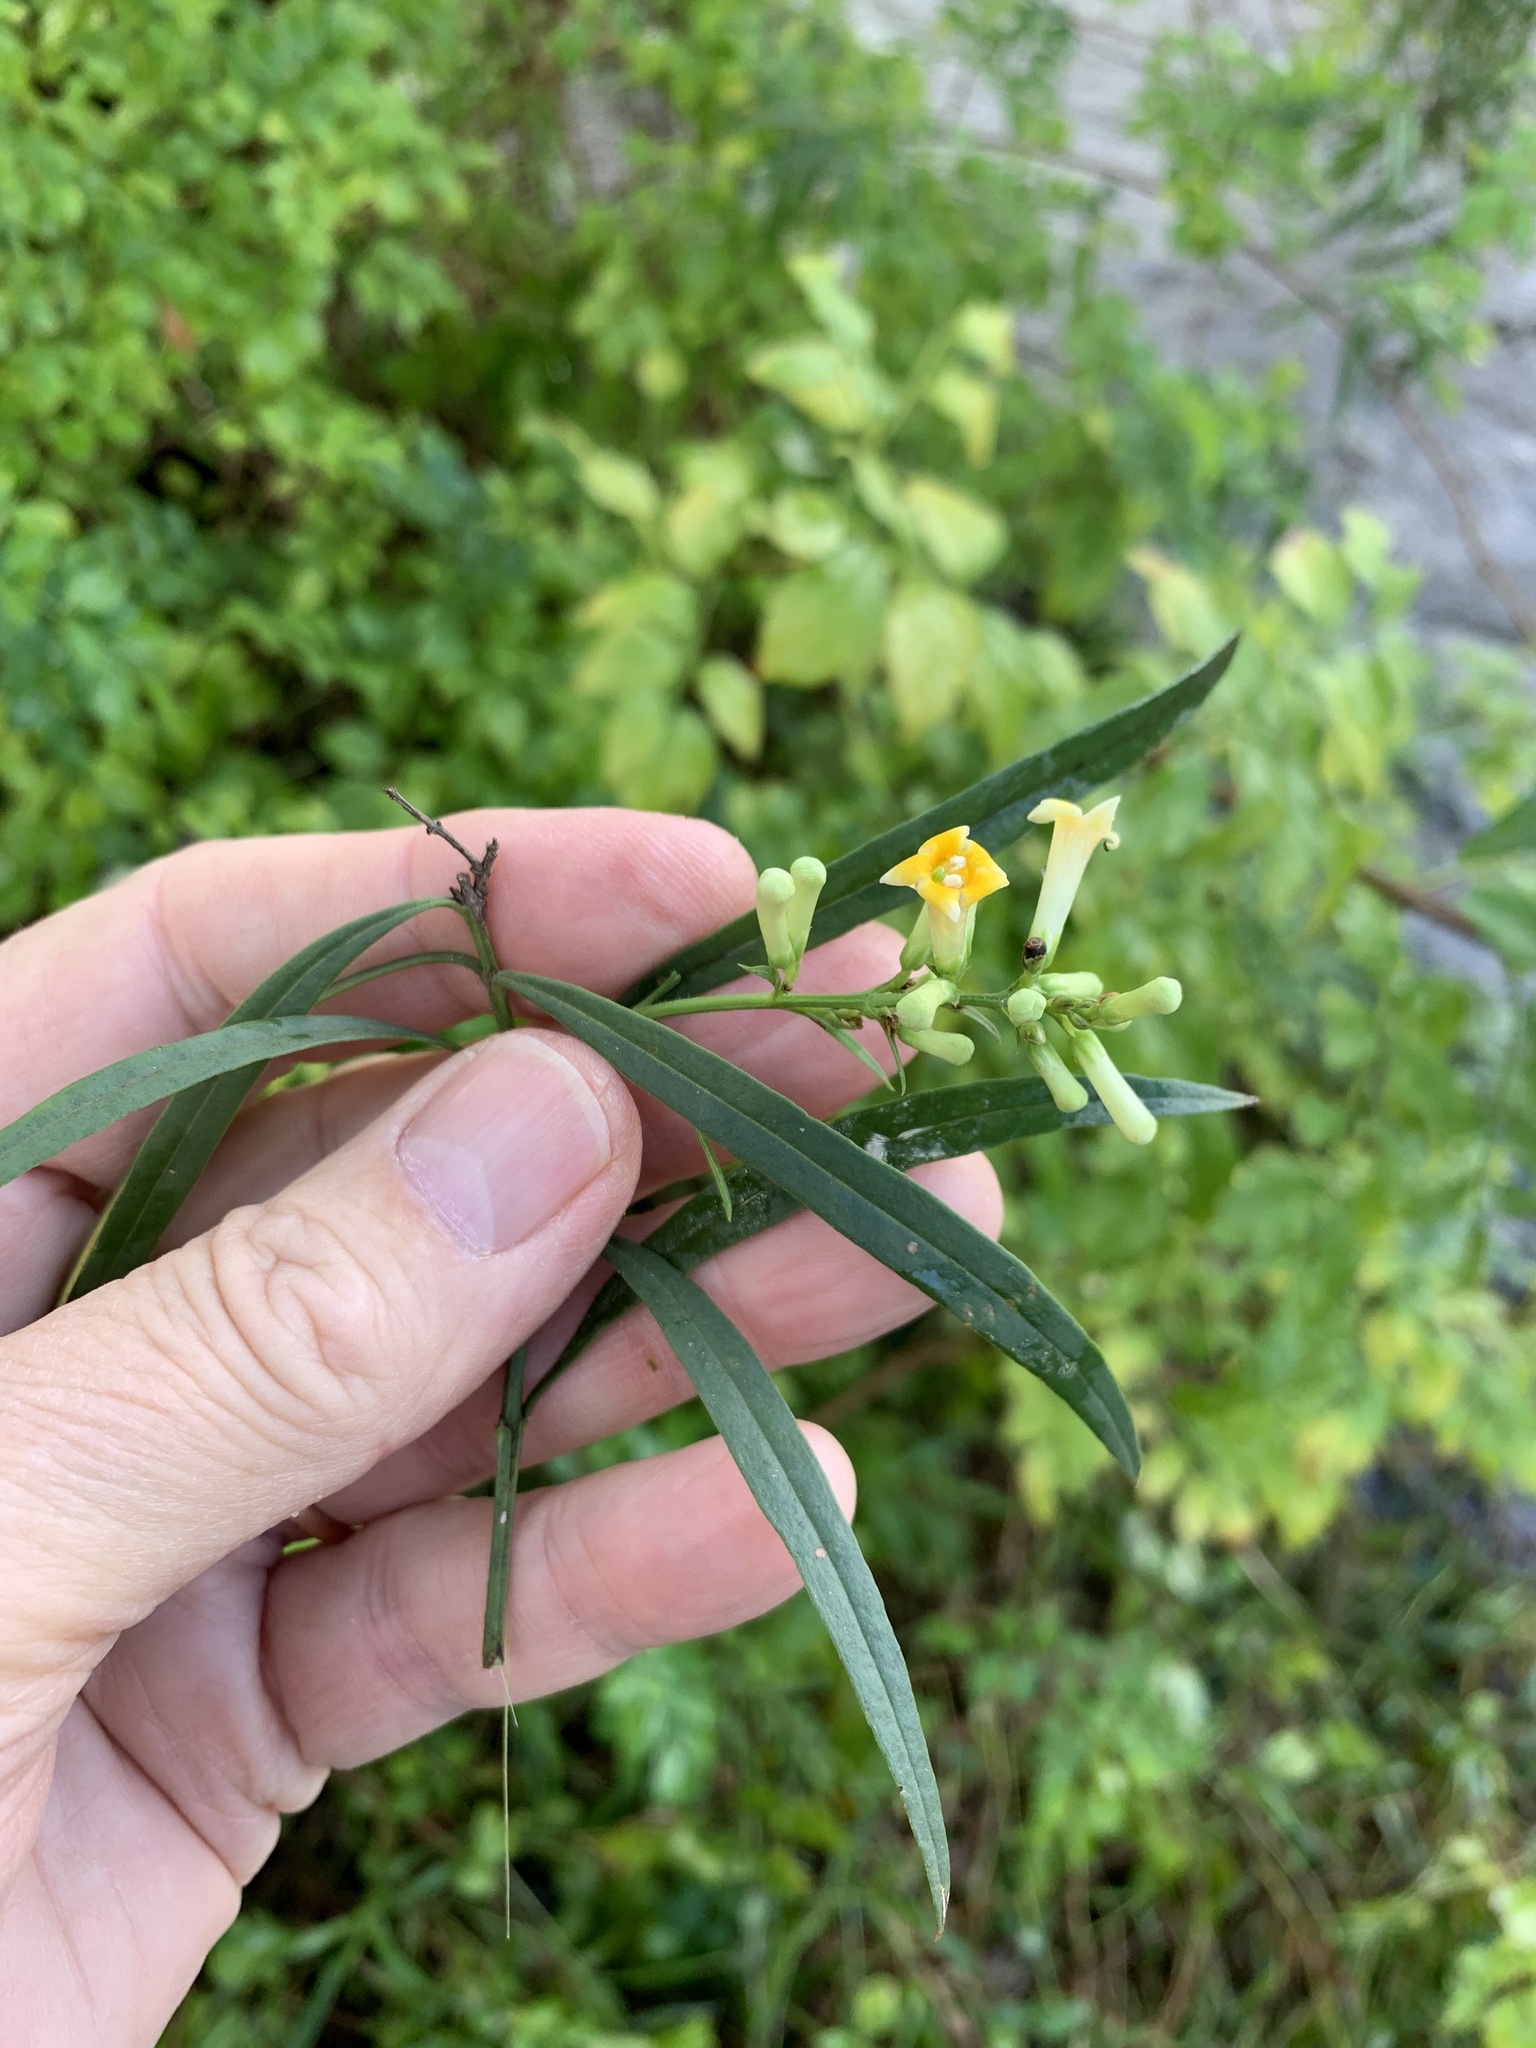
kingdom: Plantae
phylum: Tracheophyta
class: Magnoliopsida
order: Lamiales
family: Scrophulariaceae
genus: Freylinia
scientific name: Freylinia lanceolata
